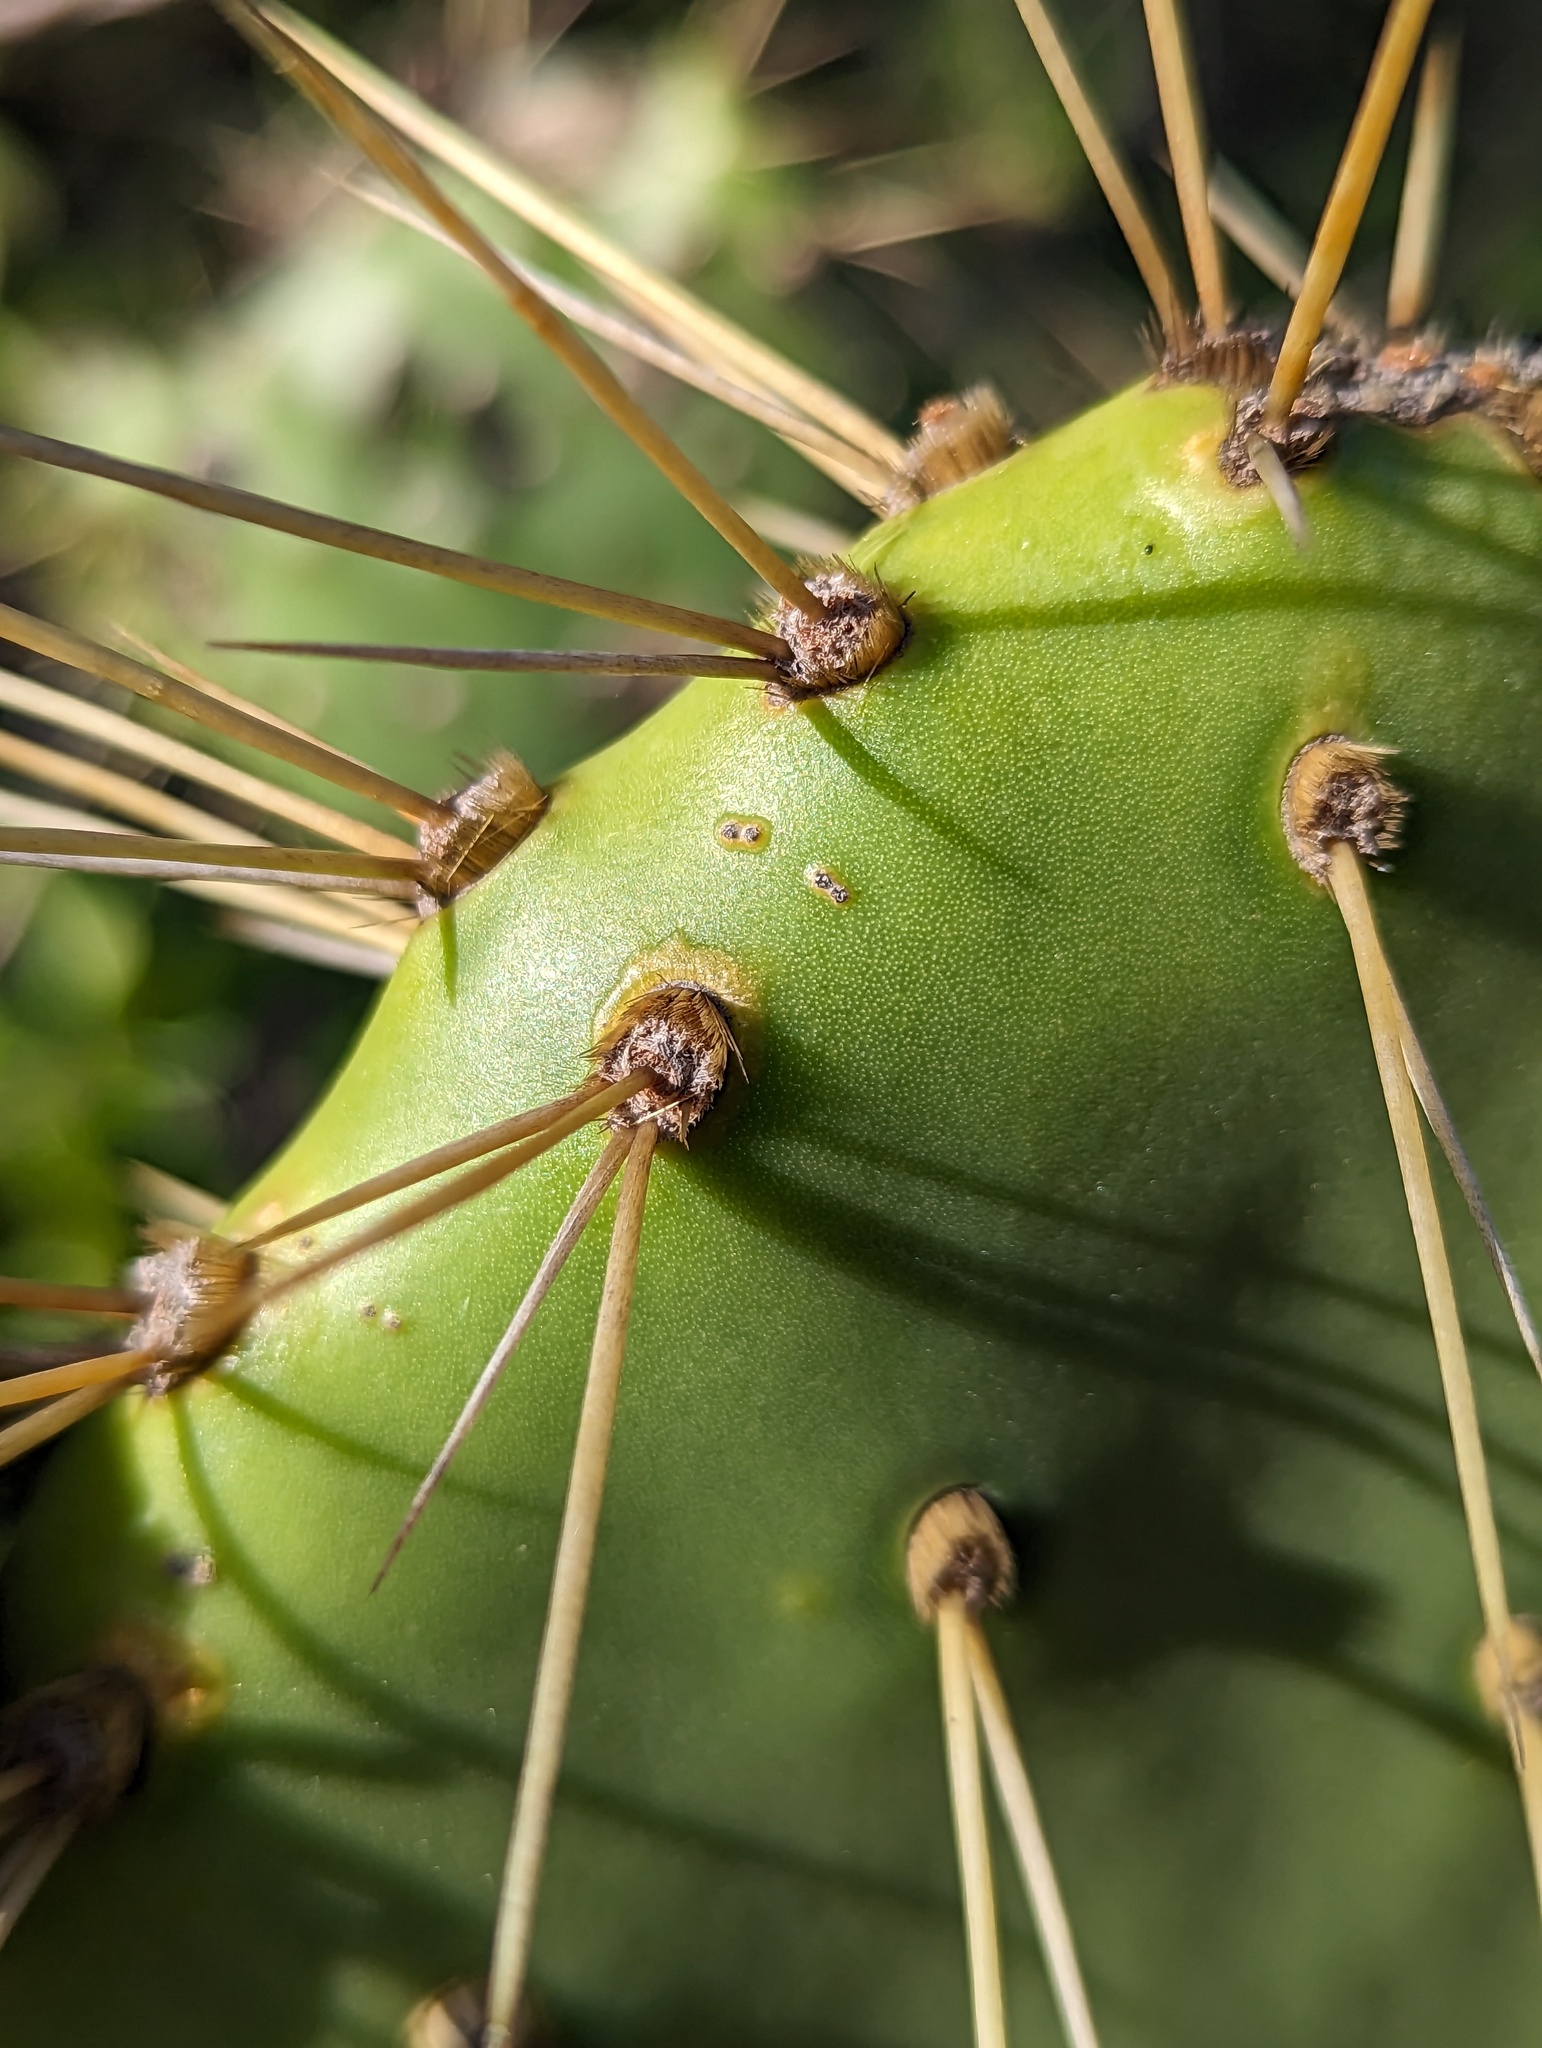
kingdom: Plantae
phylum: Tracheophyta
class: Magnoliopsida
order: Caryophyllales
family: Cactaceae
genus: Opuntia
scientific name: Opuntia caboensis
